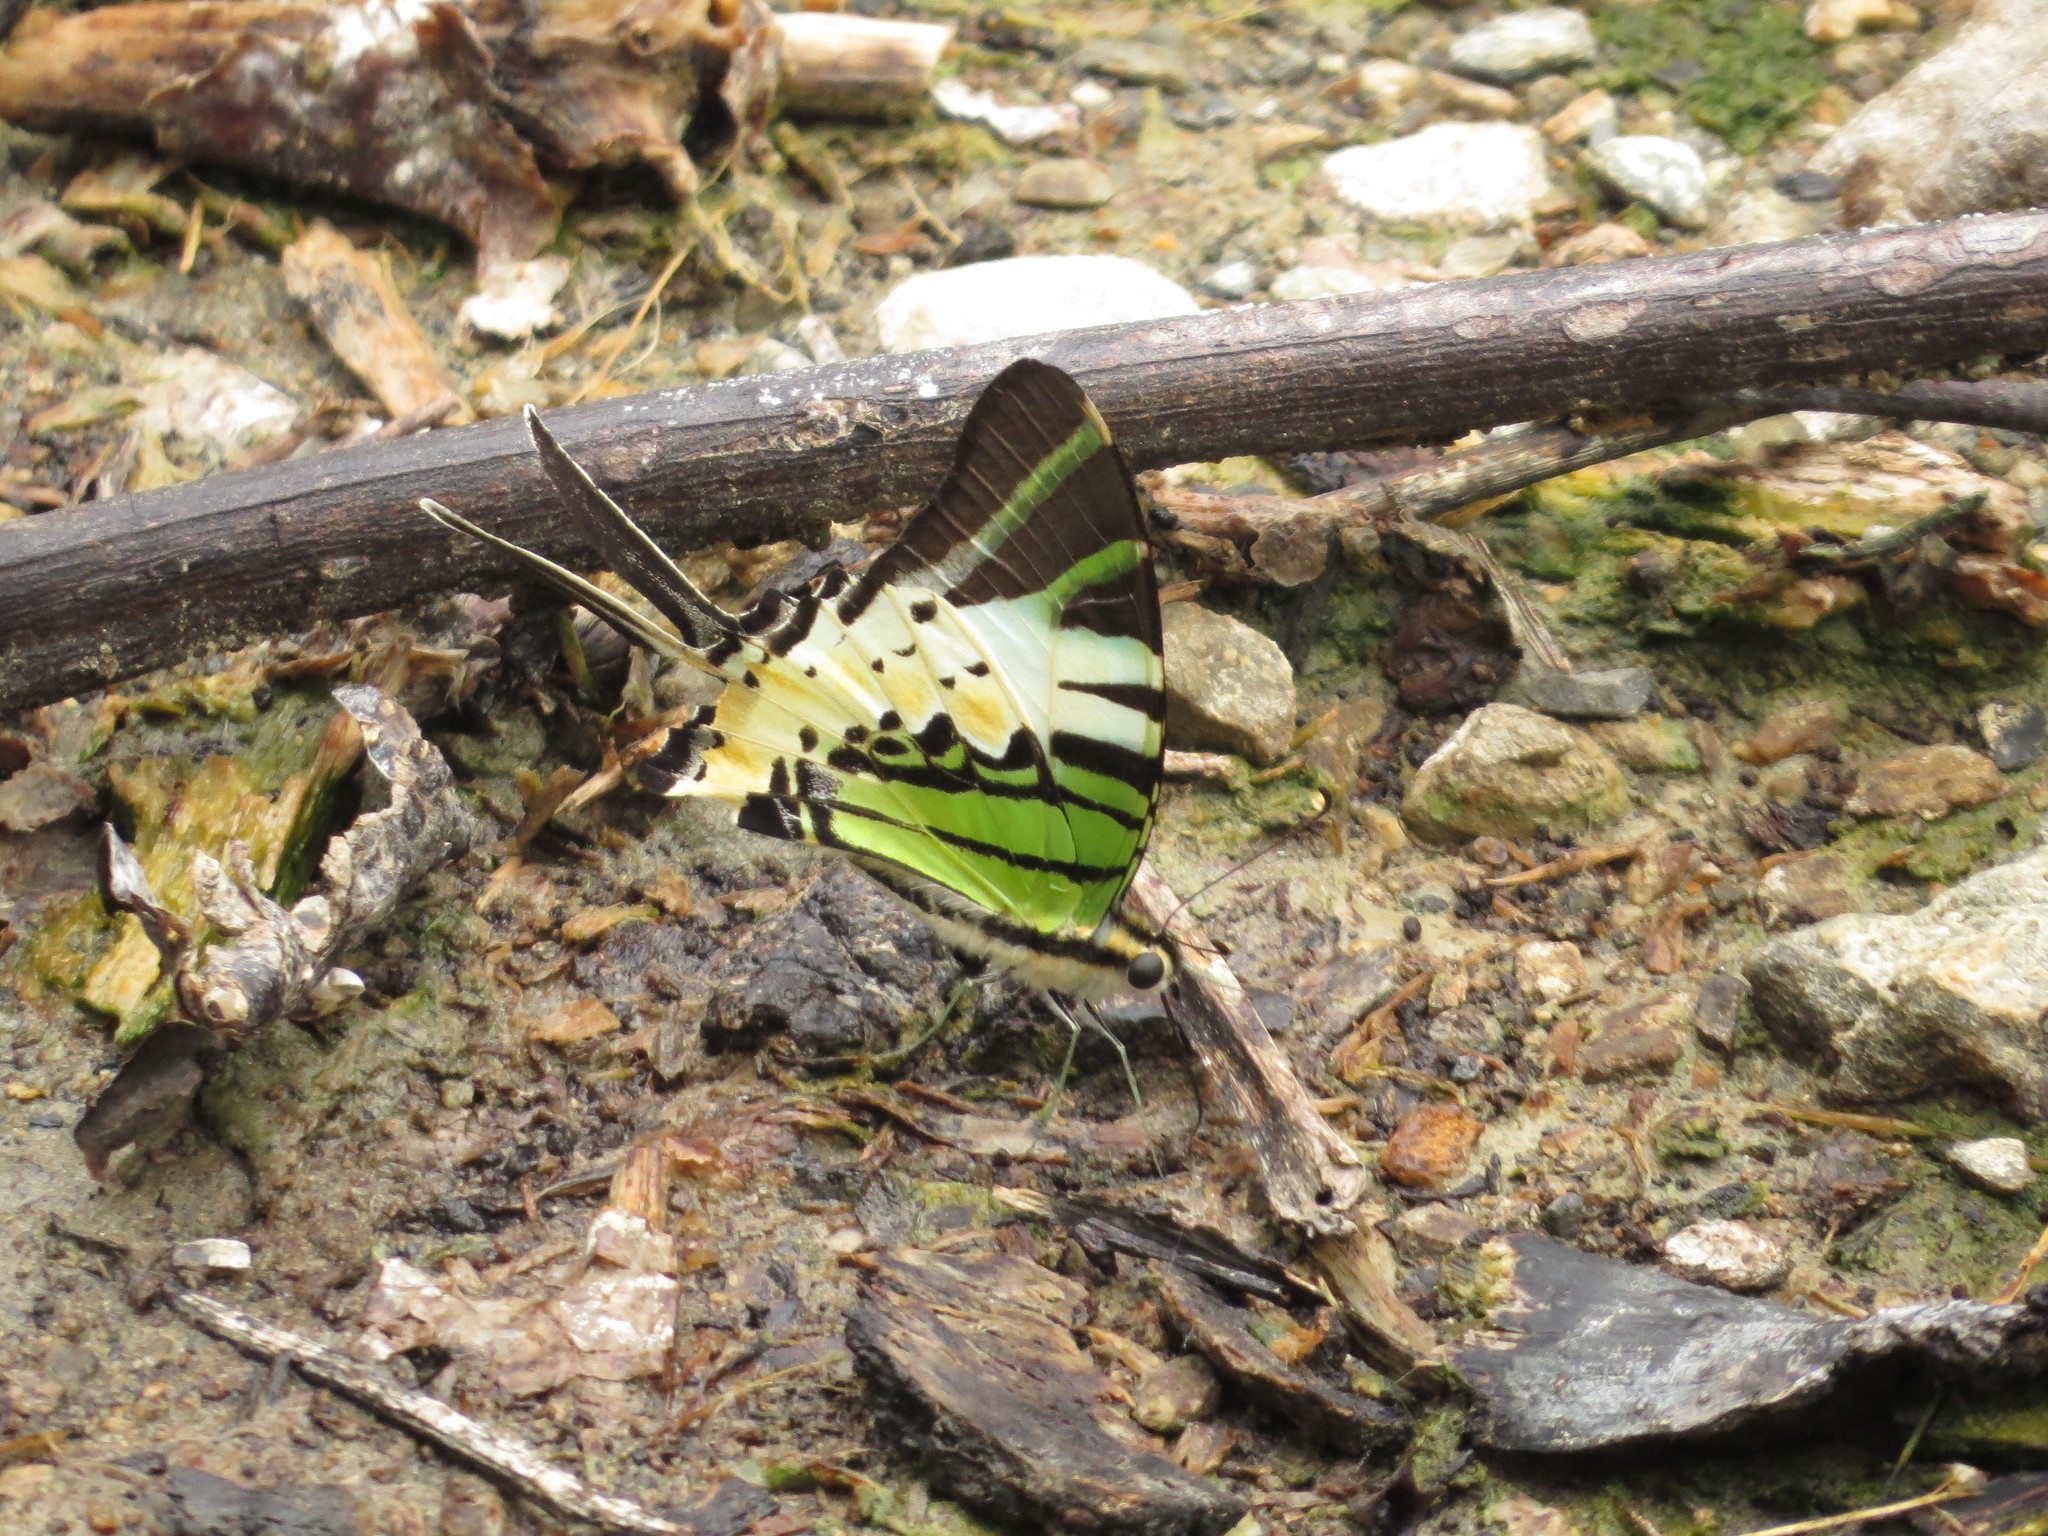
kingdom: Animalia
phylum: Arthropoda
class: Insecta
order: Lepidoptera
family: Papilionidae
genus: Graphium
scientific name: Graphium antiphates
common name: Fivebar swordtail
